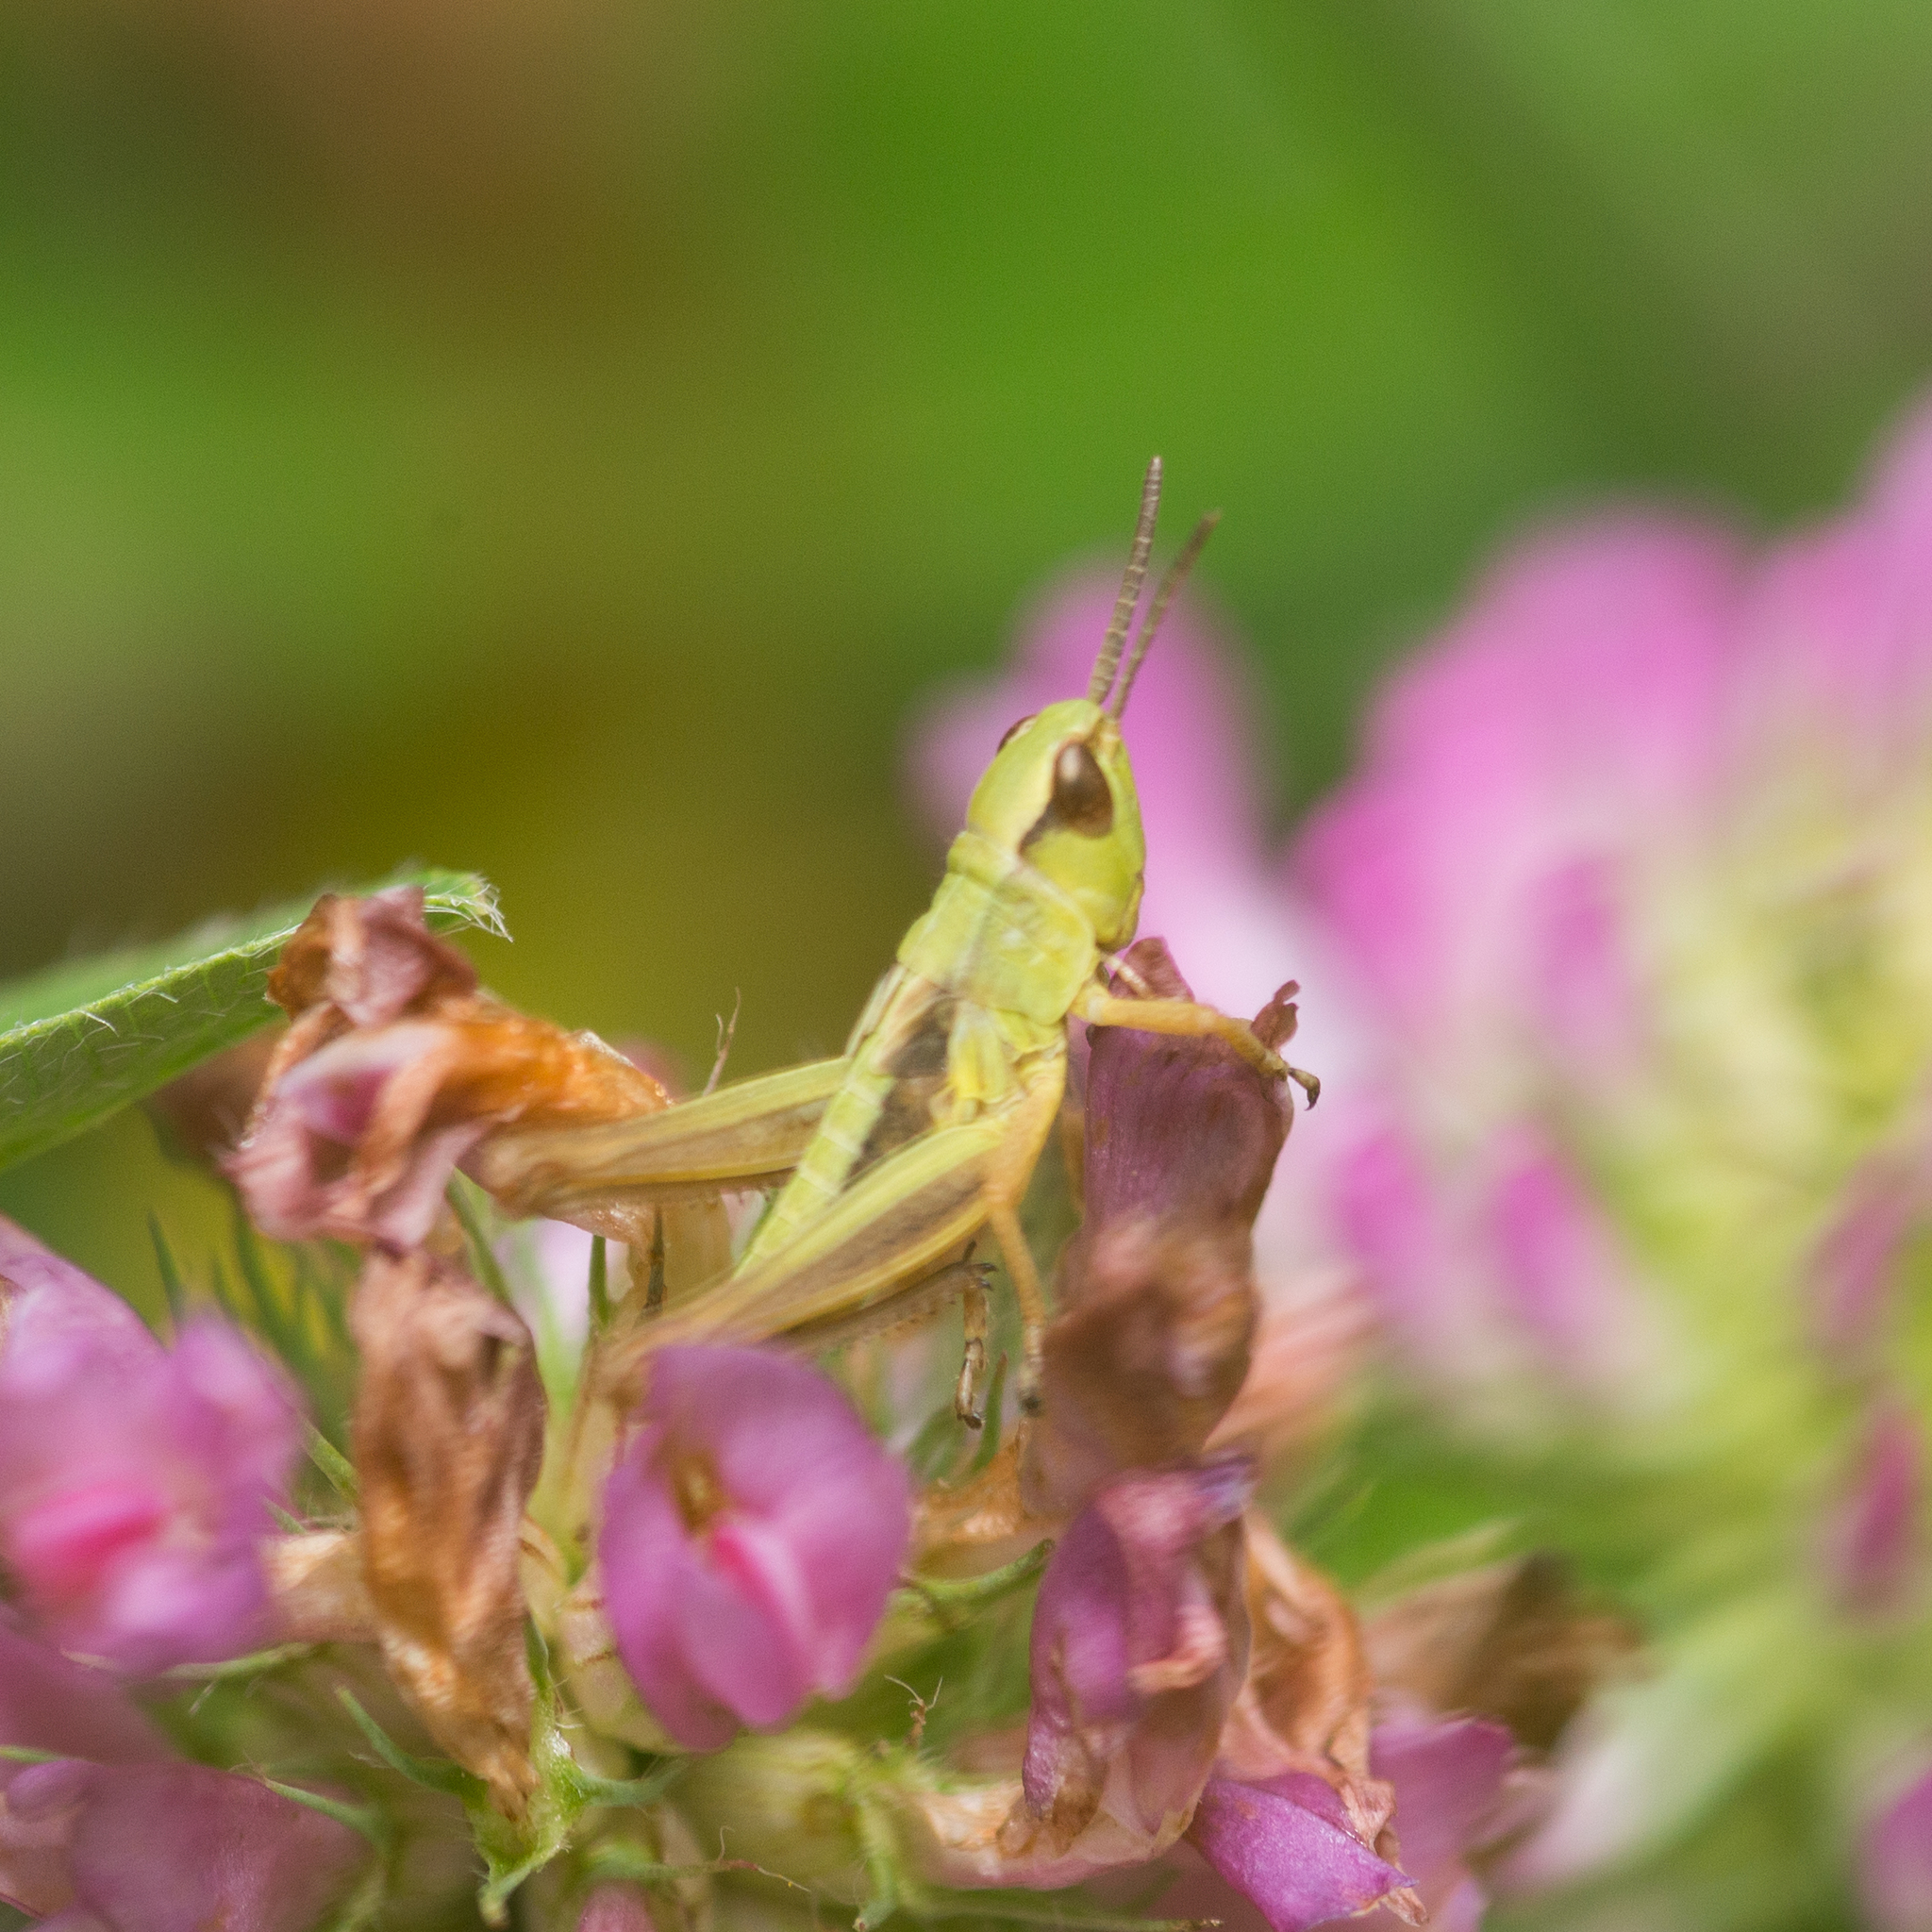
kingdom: Animalia
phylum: Arthropoda
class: Insecta
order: Orthoptera
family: Acrididae
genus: Pseudochorthippus
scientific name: Pseudochorthippus parallelus
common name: Meadow grasshopper
